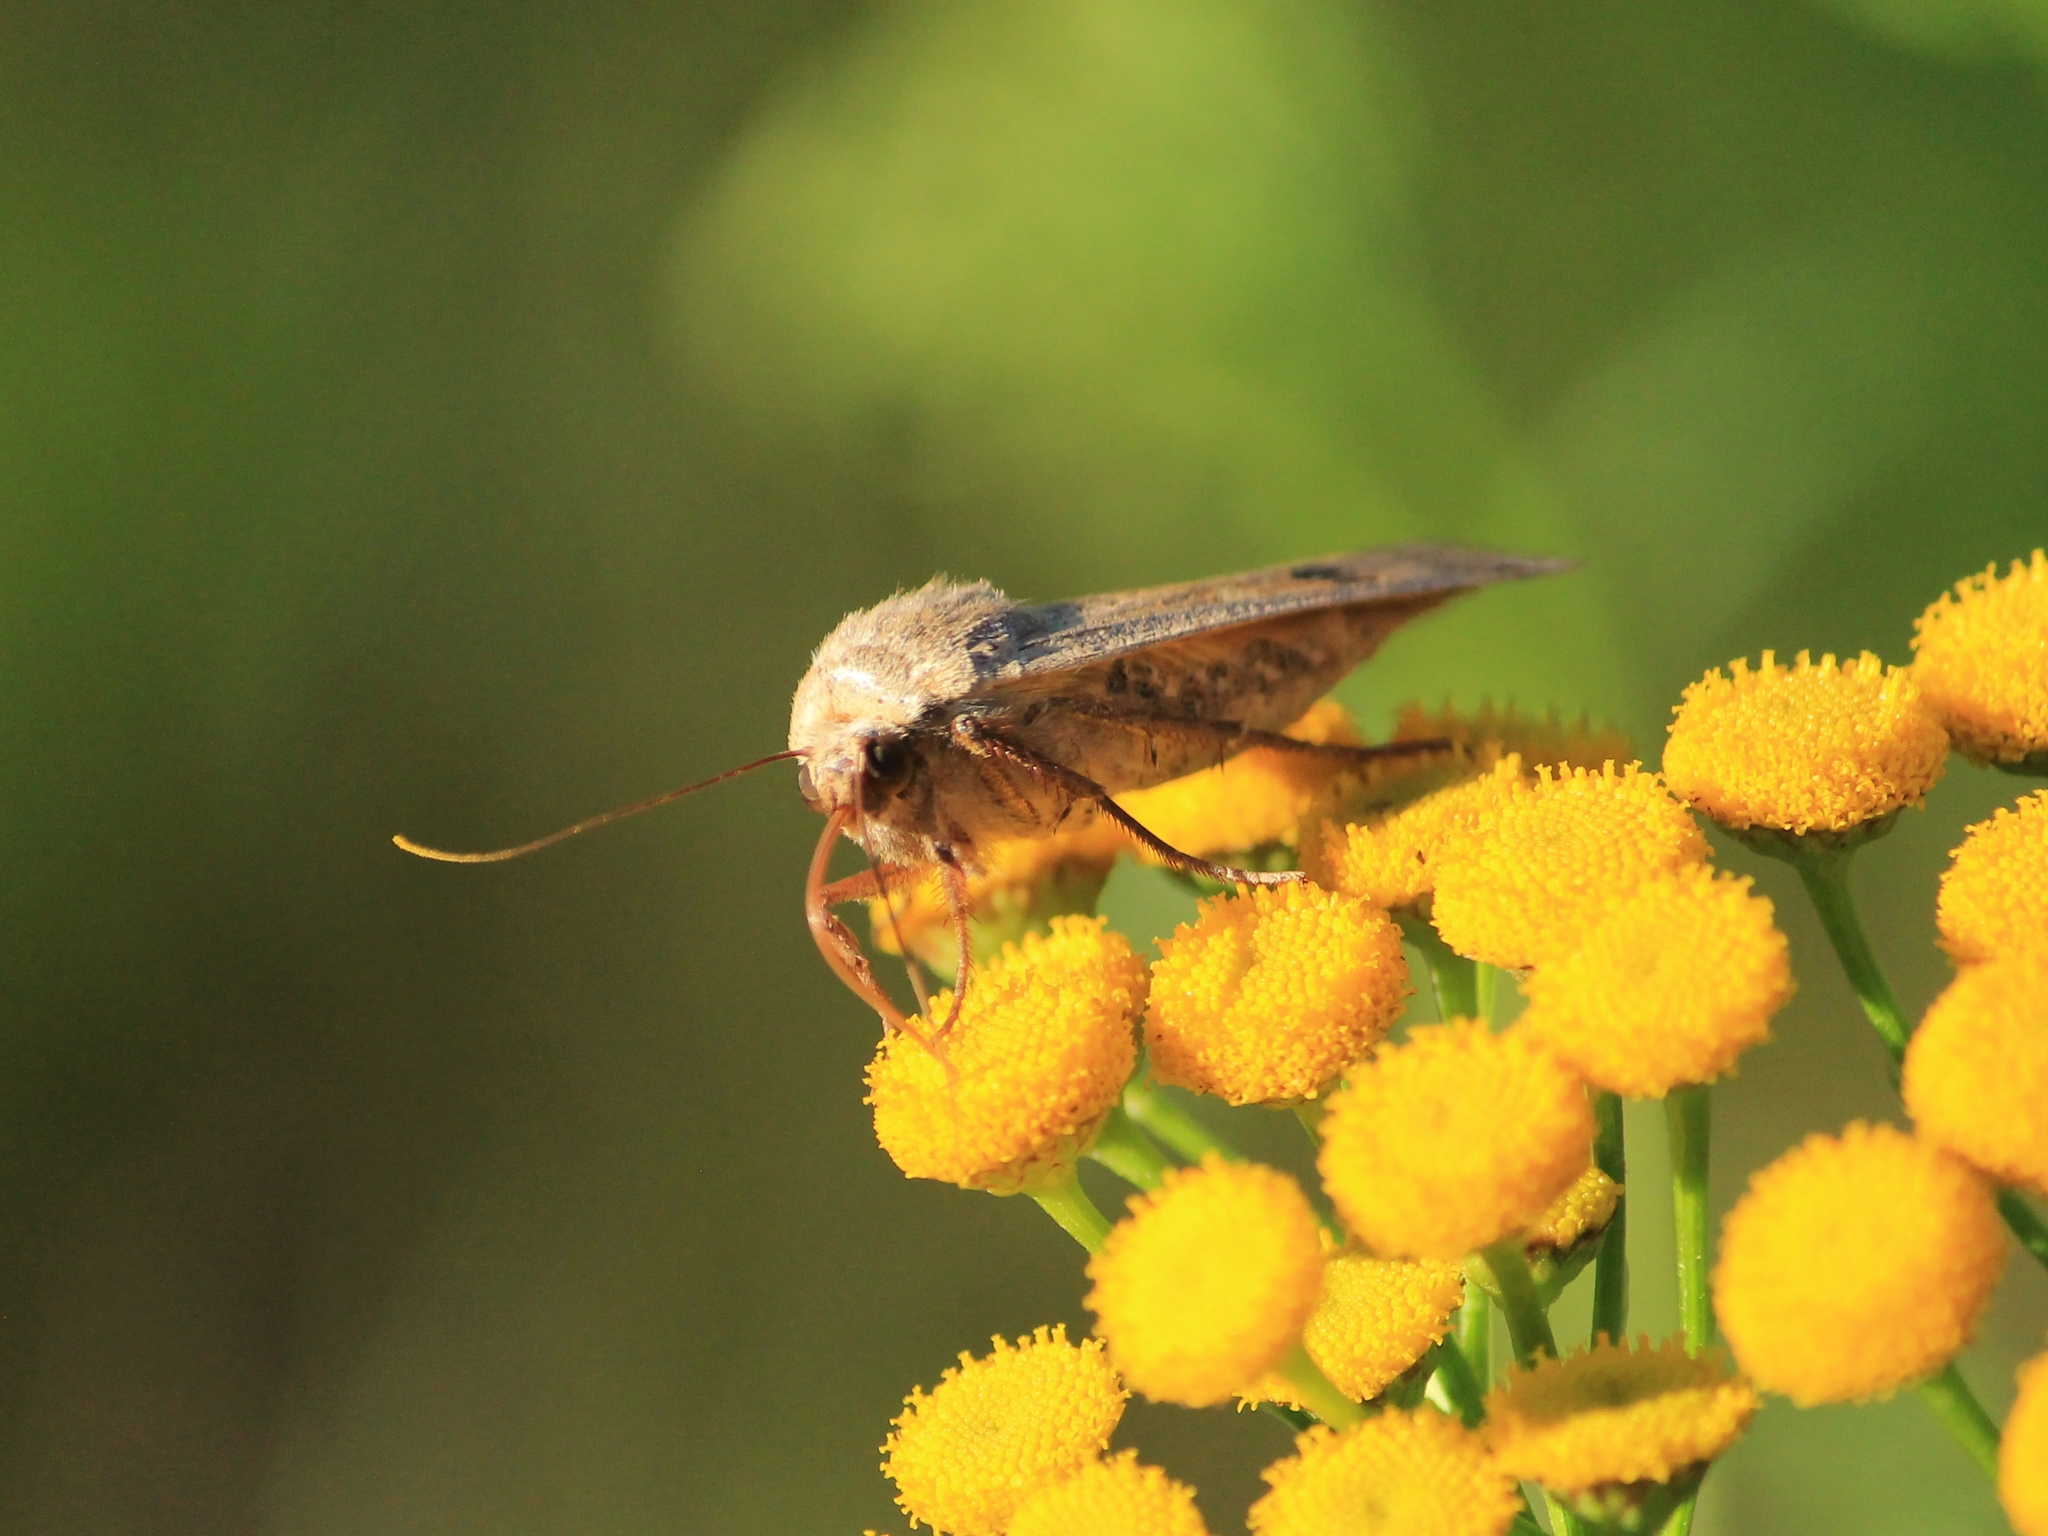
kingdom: Animalia
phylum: Arthropoda
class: Insecta
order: Lepidoptera
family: Noctuidae
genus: Noctua
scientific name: Noctua pronuba
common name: Large yellow underwing
